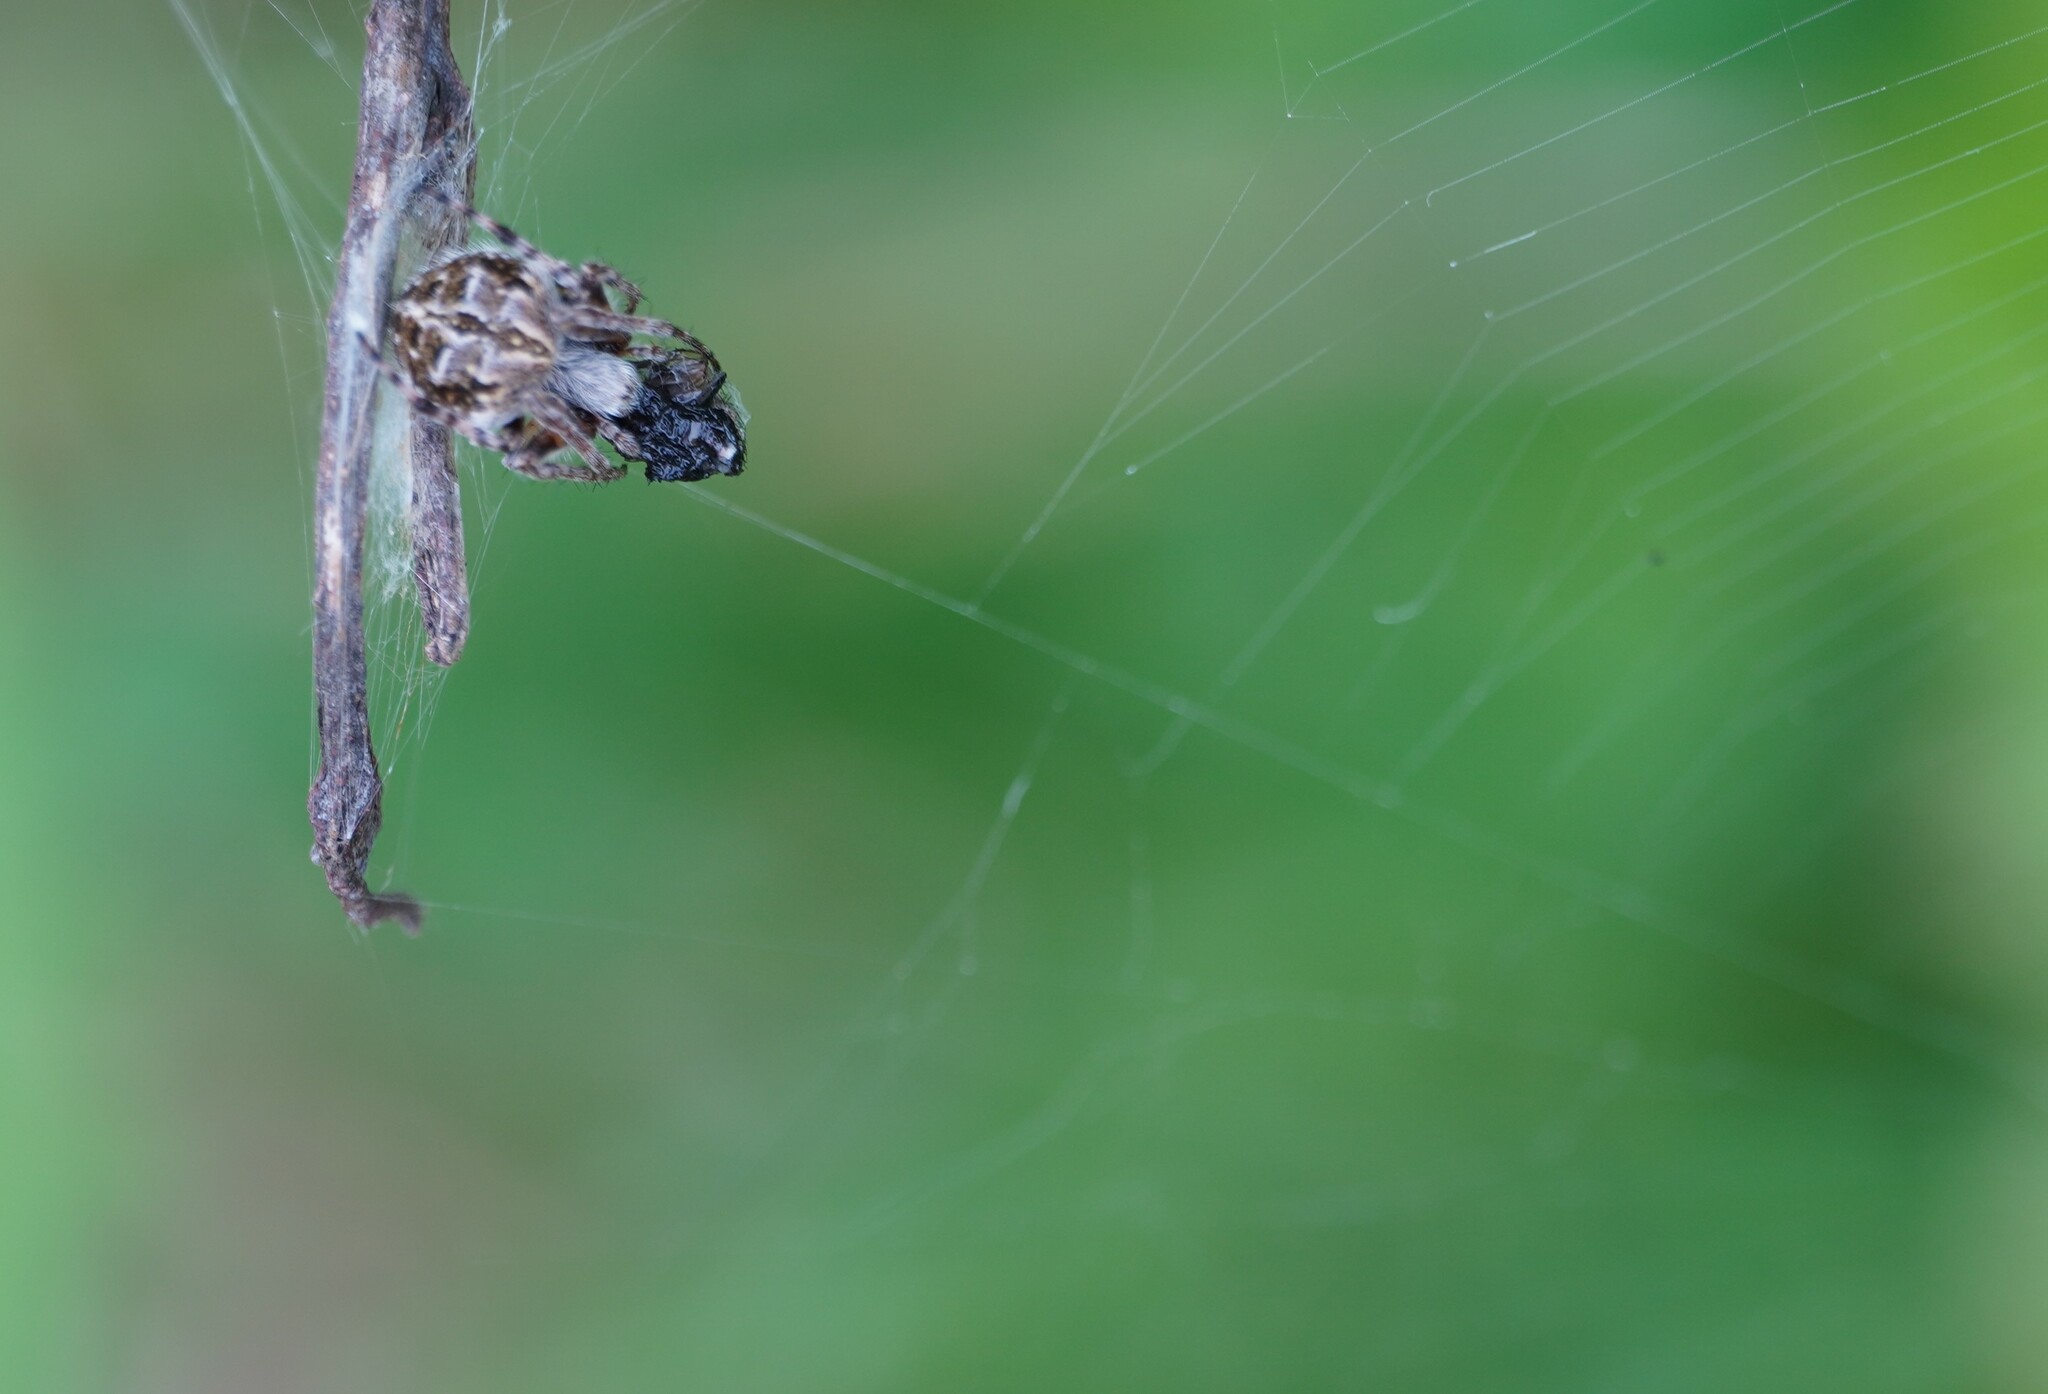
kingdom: Animalia
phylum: Arthropoda
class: Arachnida
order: Araneae
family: Araneidae
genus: Agalenatea
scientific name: Agalenatea redii
